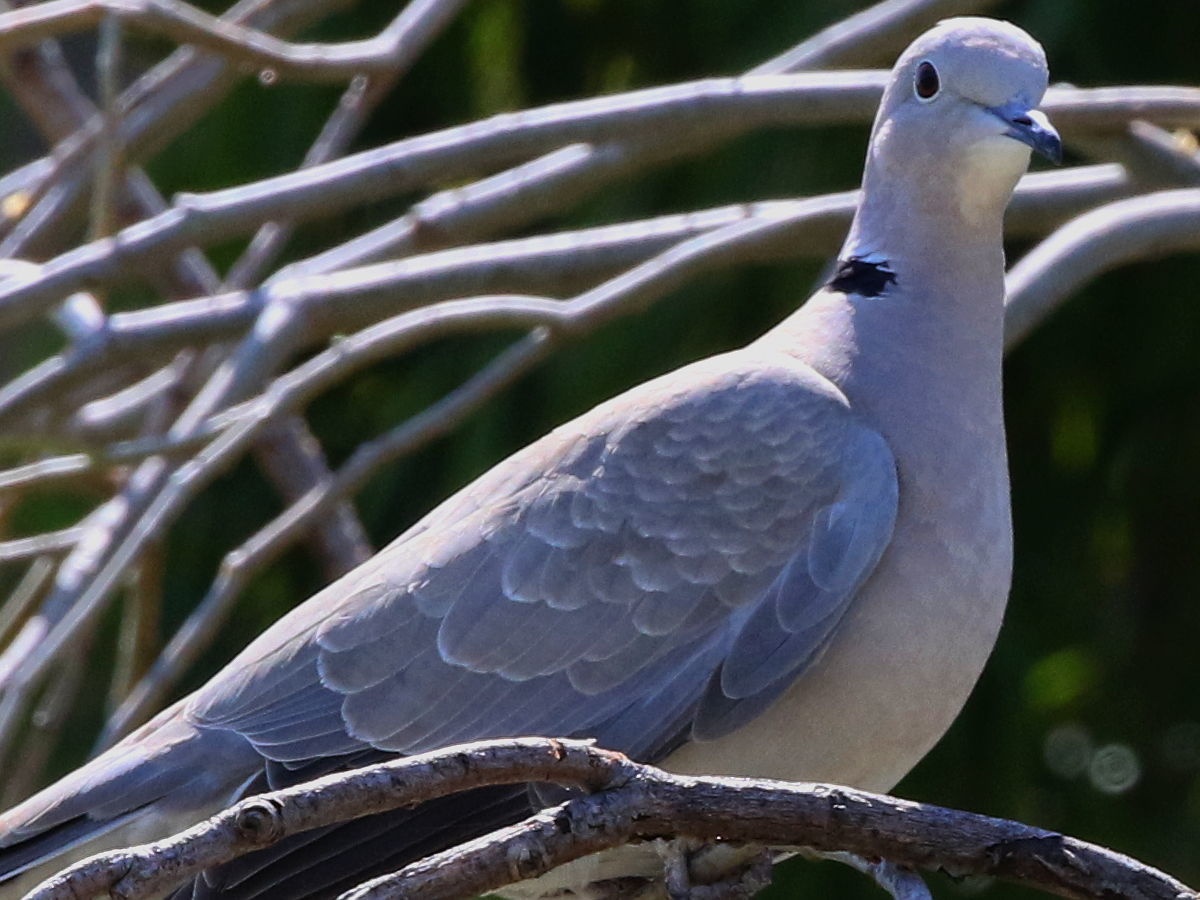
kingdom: Animalia
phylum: Chordata
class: Aves
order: Columbiformes
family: Columbidae
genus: Streptopelia
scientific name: Streptopelia decaocto
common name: Eurasian collared dove
